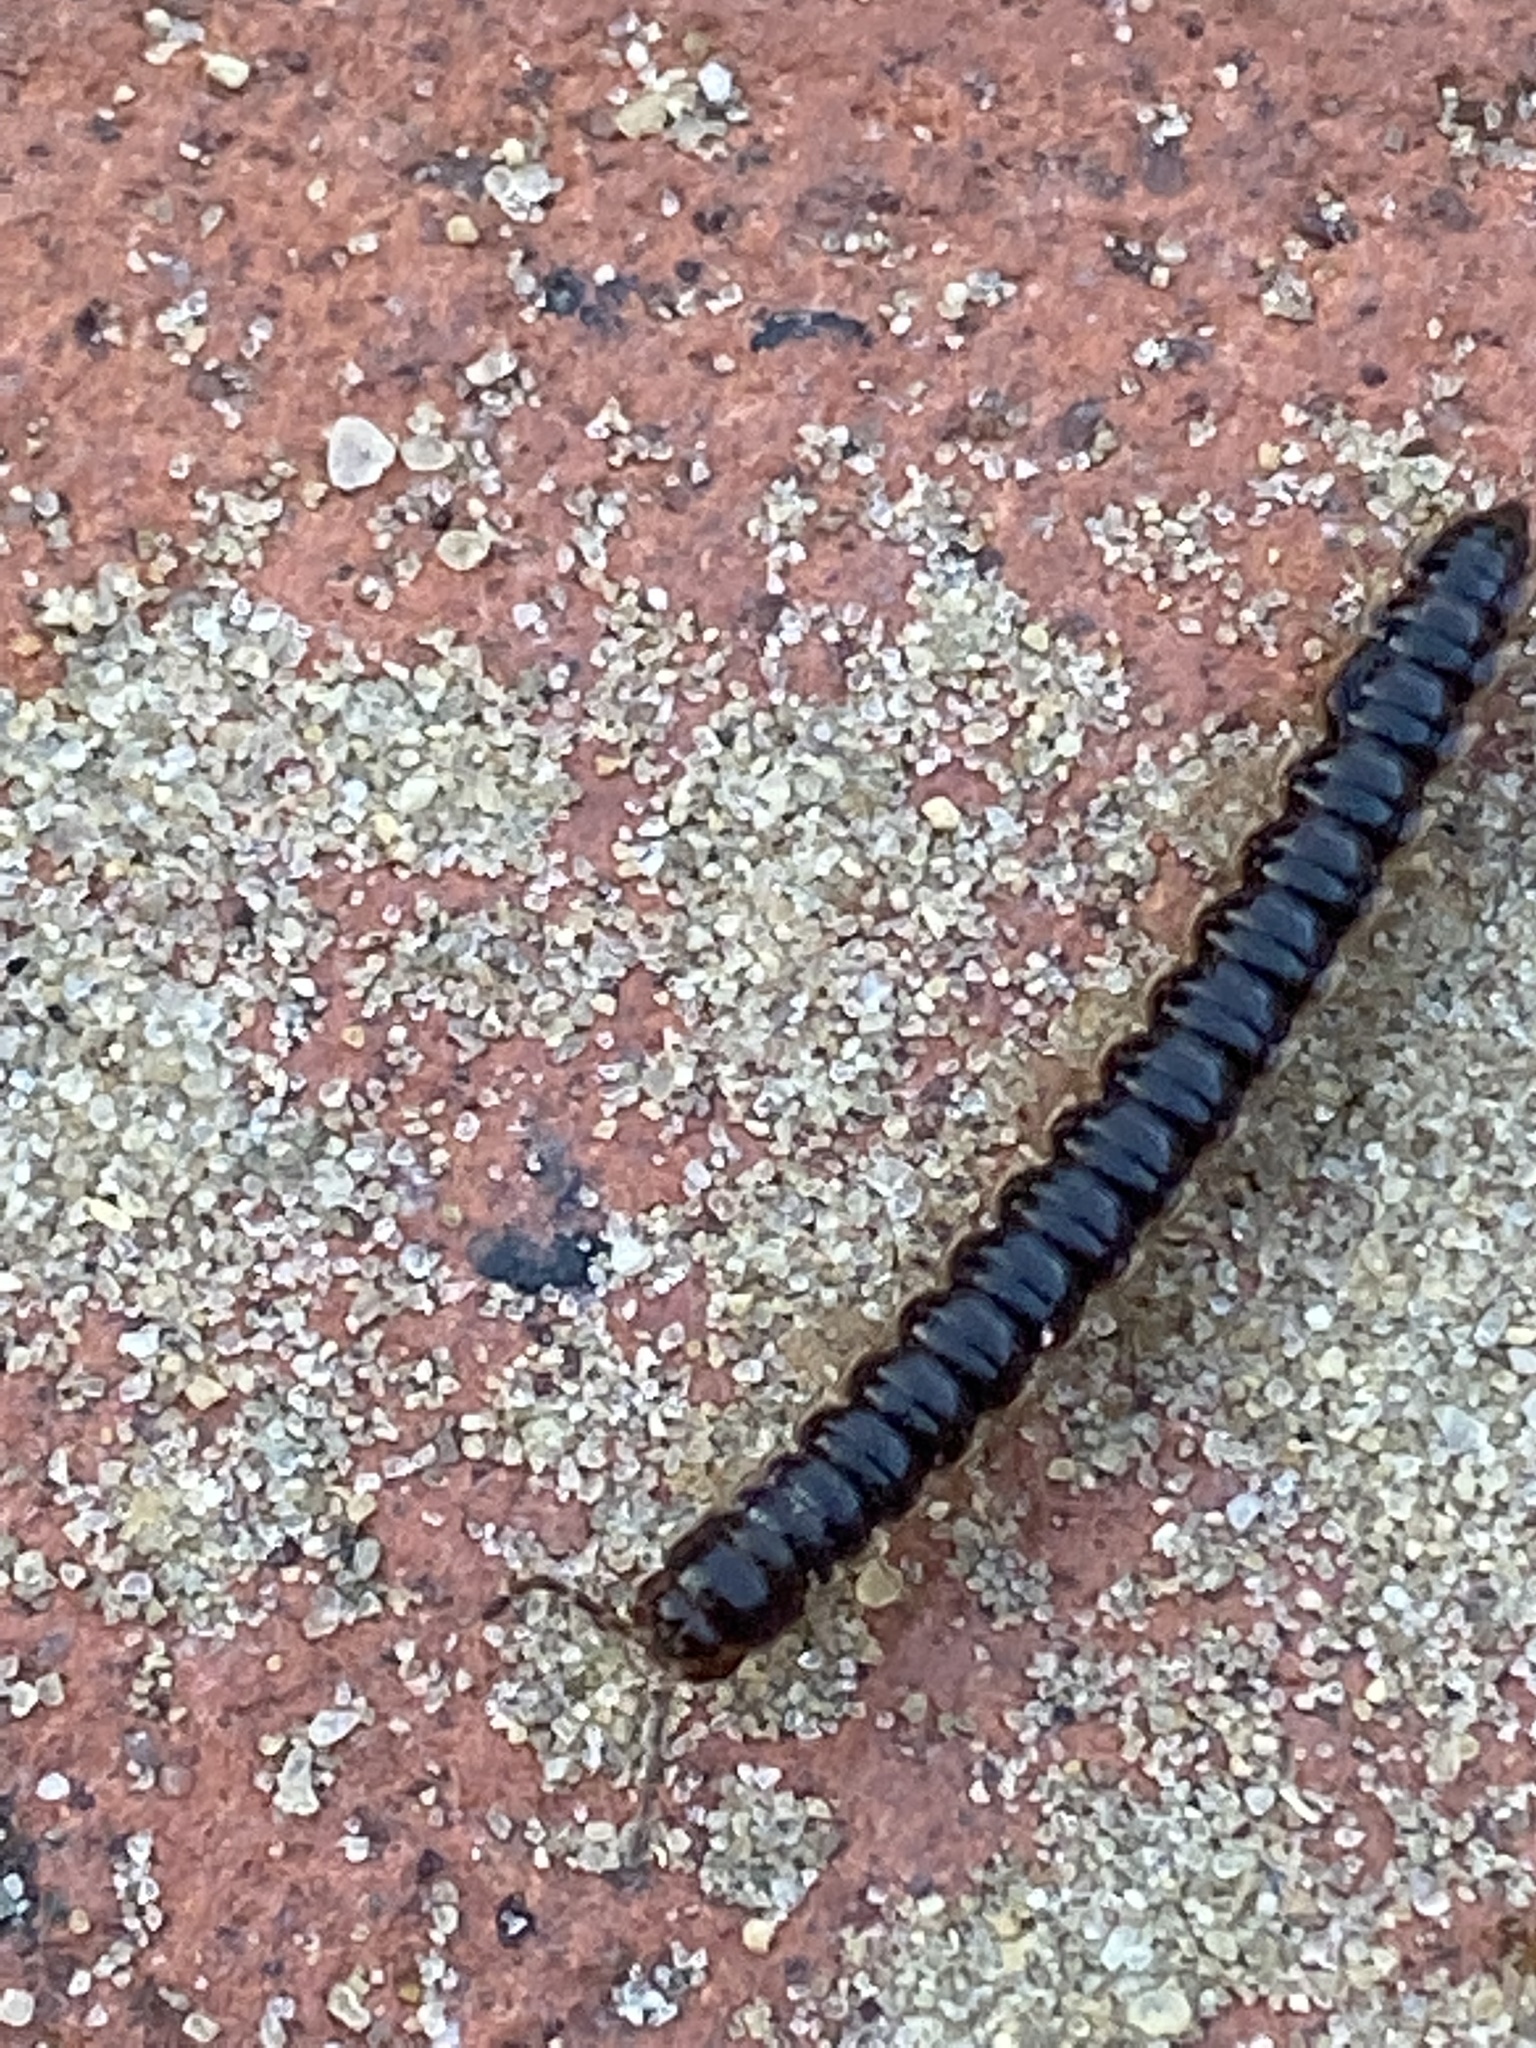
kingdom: Animalia
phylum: Arthropoda
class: Diplopoda
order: Polydesmida
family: Paradoxosomatidae
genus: Oxidus
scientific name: Oxidus gracilis
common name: Greenhouse millipede
